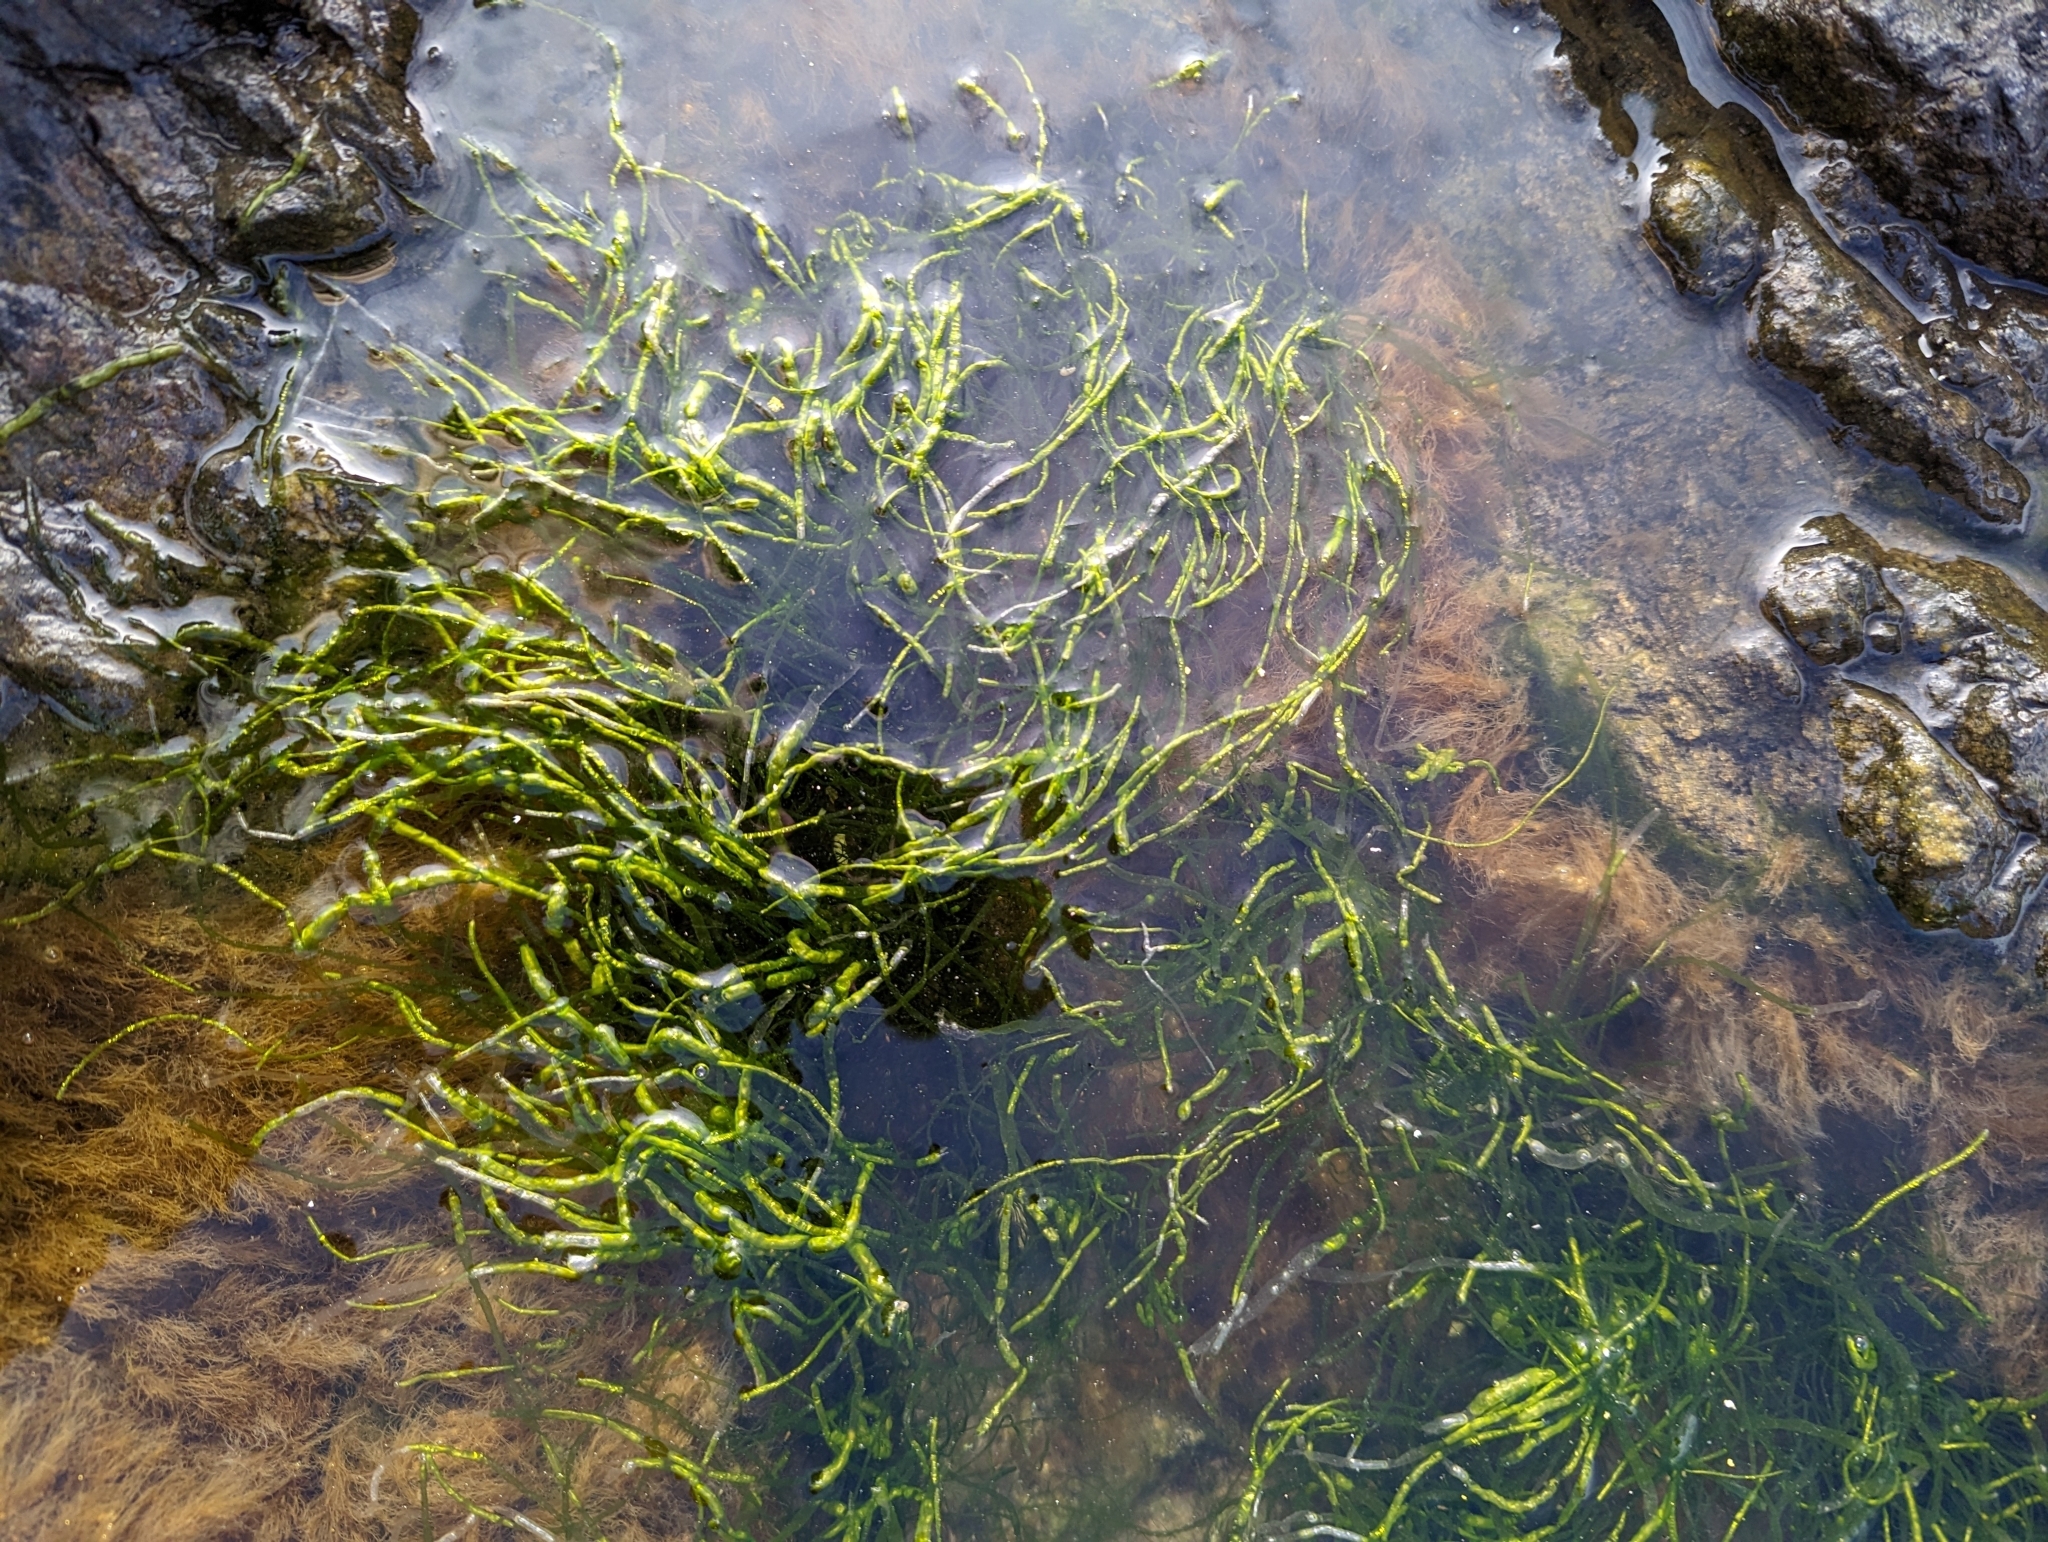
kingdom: Plantae
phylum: Chlorophyta
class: Ulvophyceae
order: Ulvales
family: Ulvaceae
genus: Ulva
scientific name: Ulva intestinalis
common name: Gut weed
